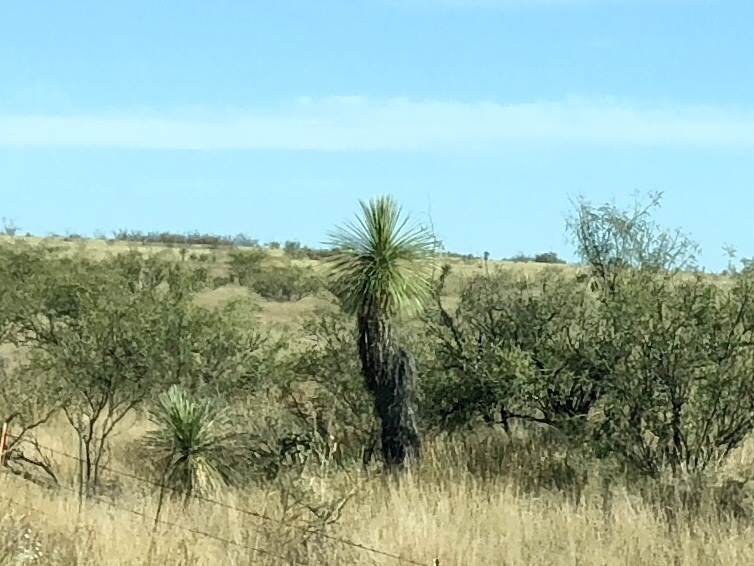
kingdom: Plantae
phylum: Tracheophyta
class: Liliopsida
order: Asparagales
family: Asparagaceae
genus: Yucca
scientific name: Yucca elata
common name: Palmella
